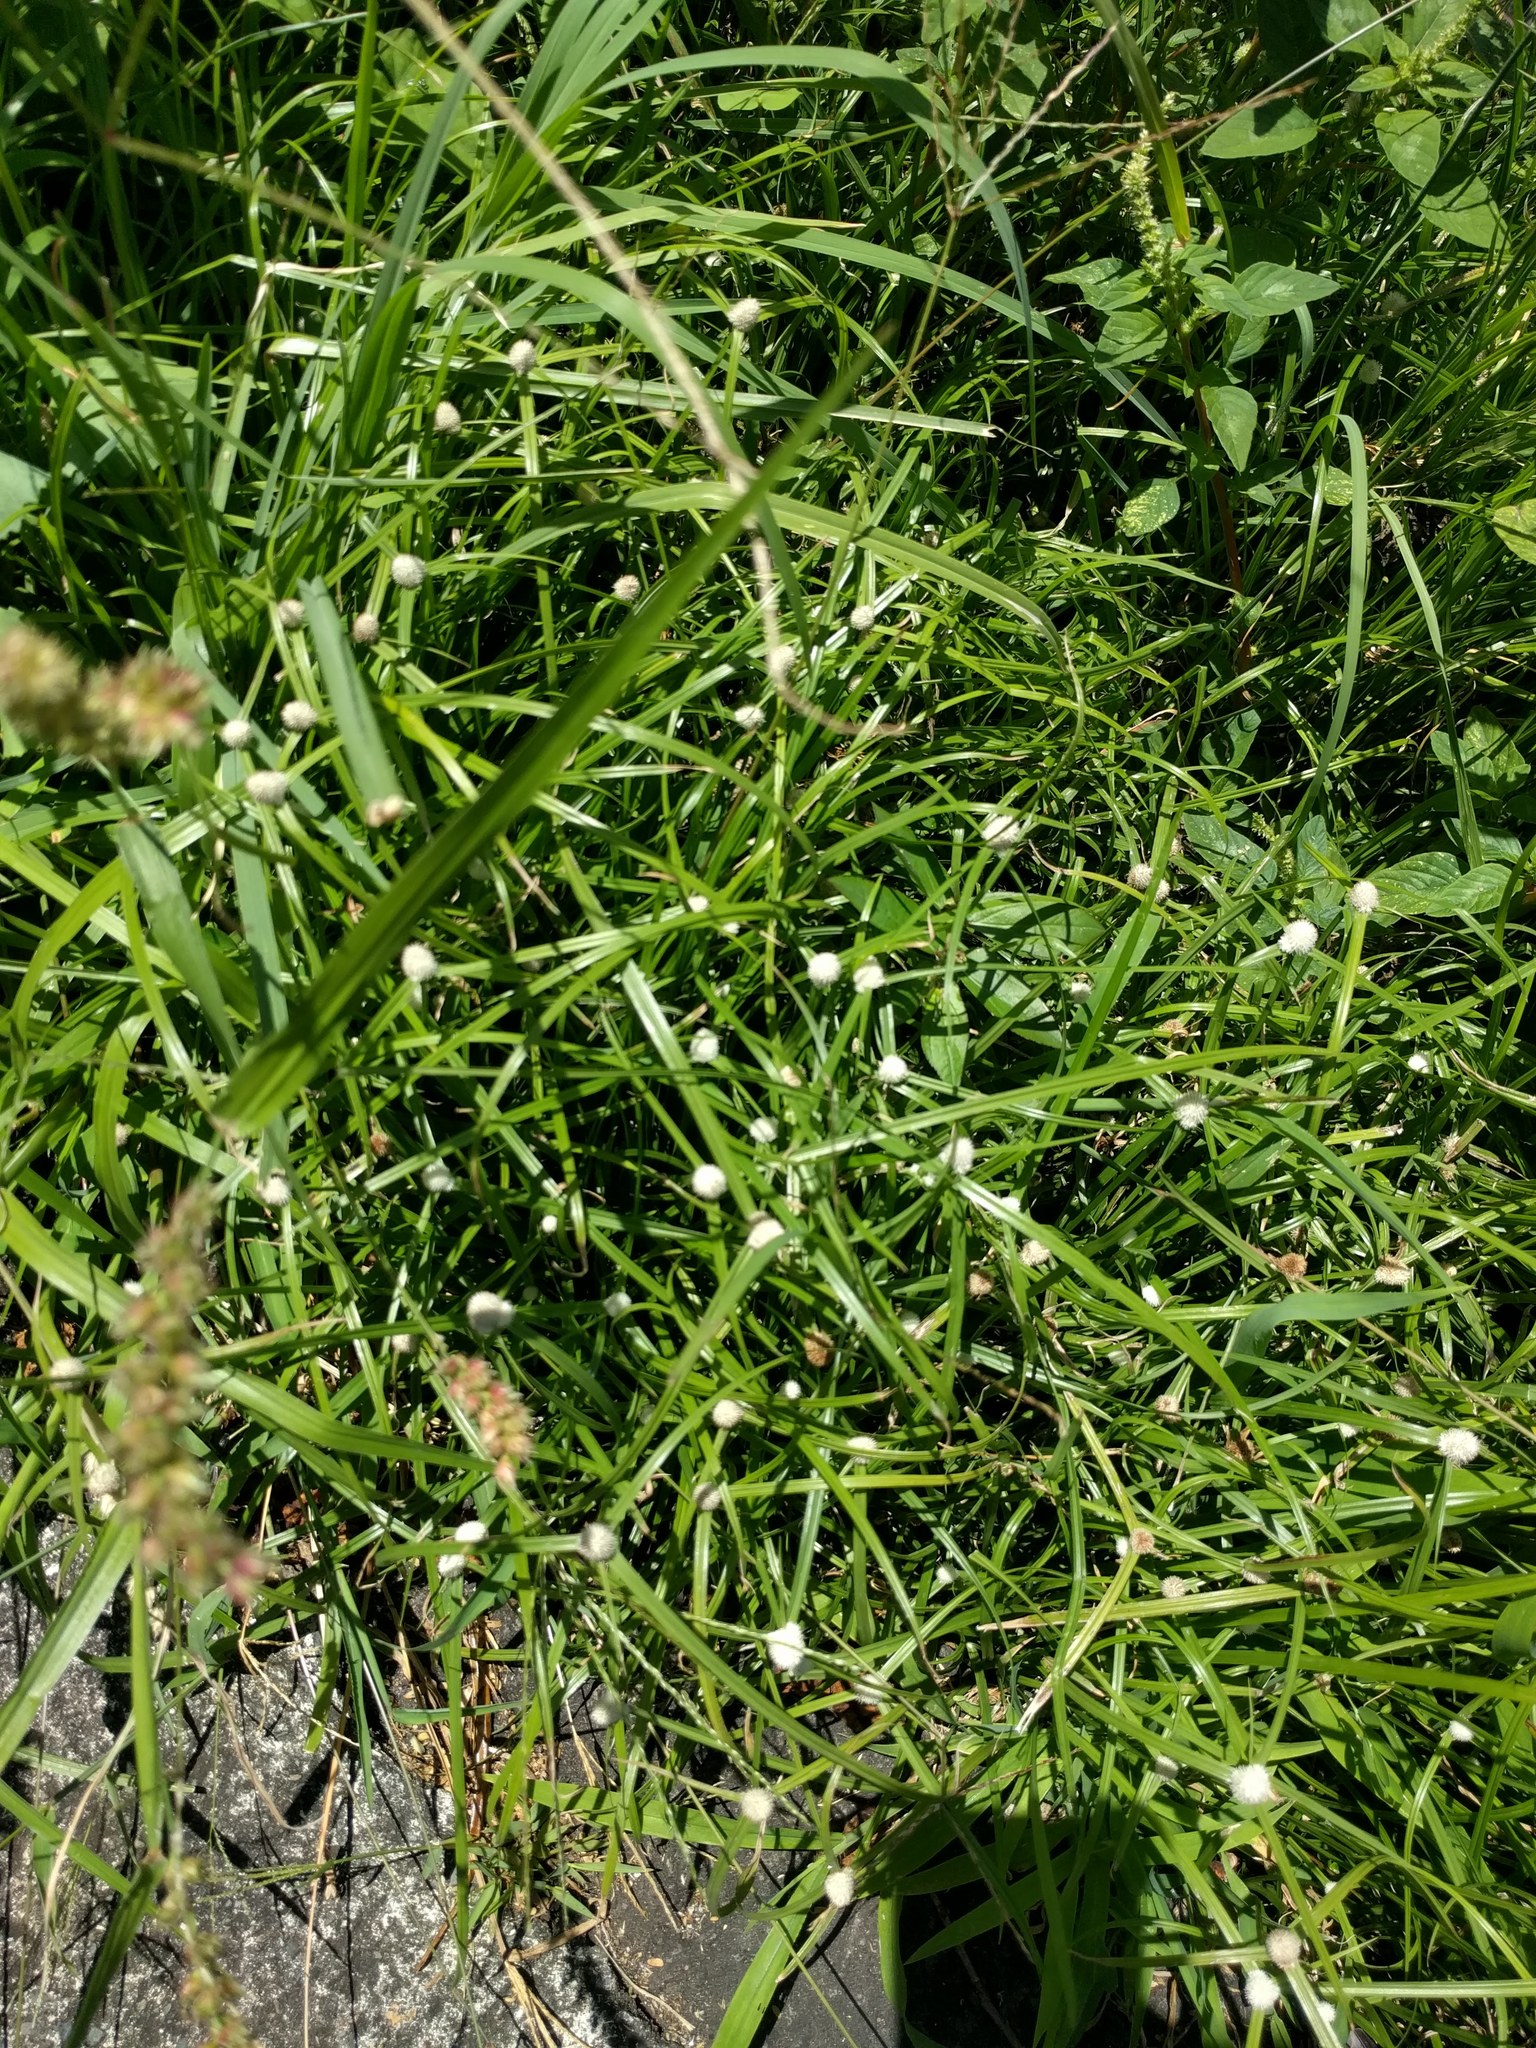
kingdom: Plantae
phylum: Tracheophyta
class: Liliopsida
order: Poales
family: Cyperaceae
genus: Cyperus
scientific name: Cyperus mindorensis
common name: Flatsedge
